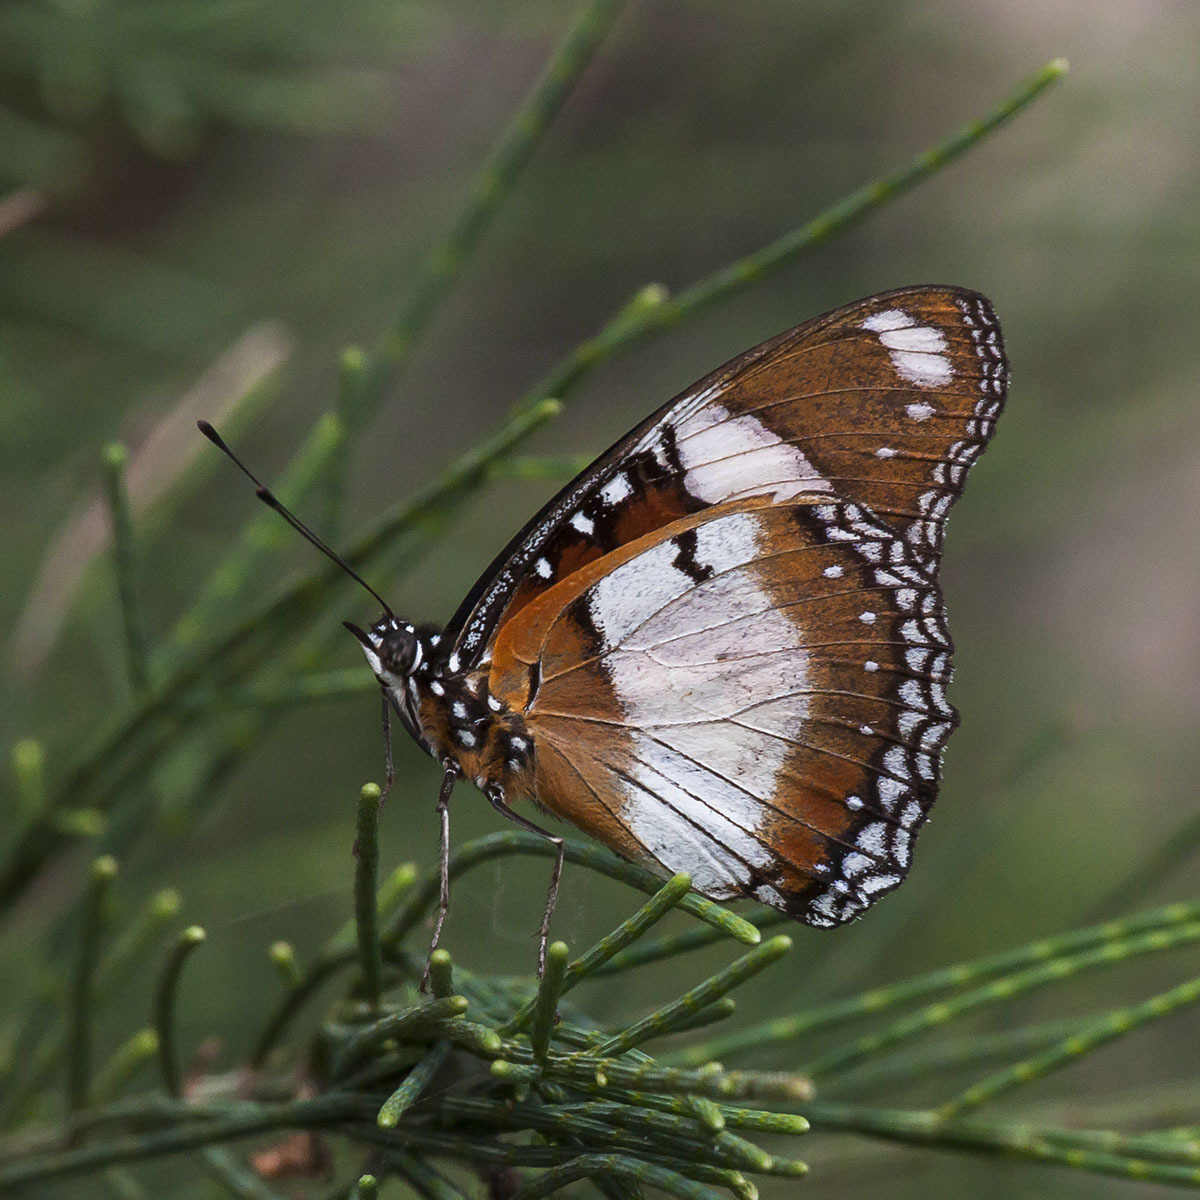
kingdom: Animalia
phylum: Arthropoda
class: Insecta
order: Lepidoptera
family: Nymphalidae
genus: Hypolimnas
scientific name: Hypolimnas misippus
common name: False plain tiger
